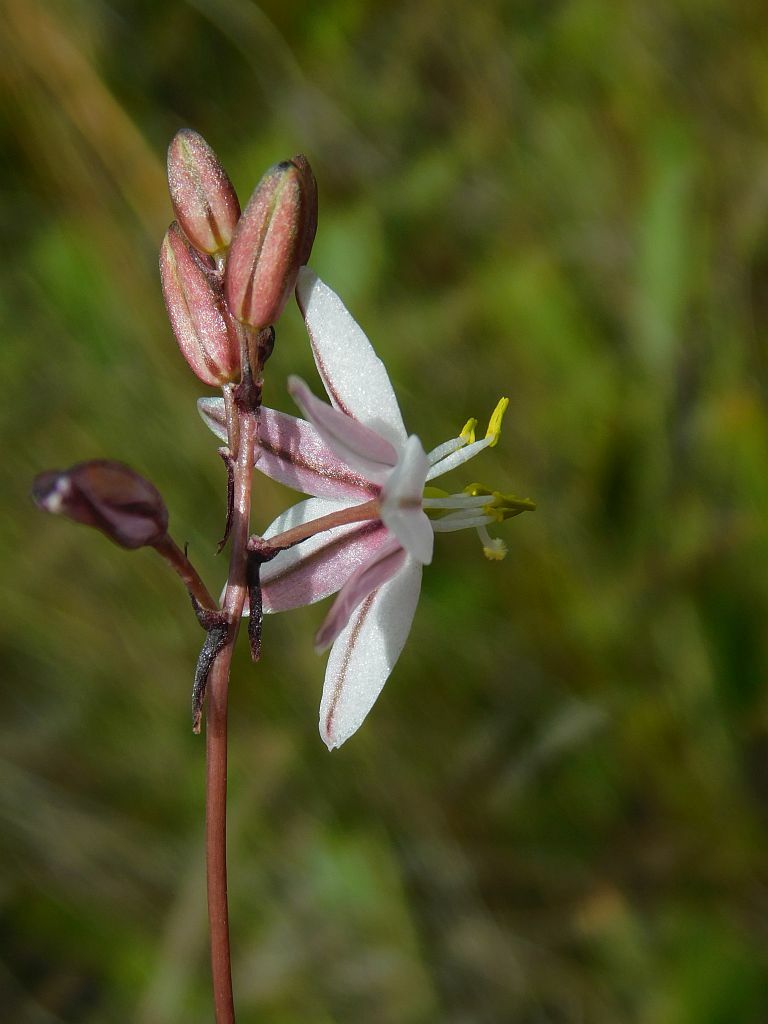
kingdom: Plantae
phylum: Tracheophyta
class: Liliopsida
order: Asparagales
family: Asparagaceae
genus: Drimia
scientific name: Drimia exuviata
